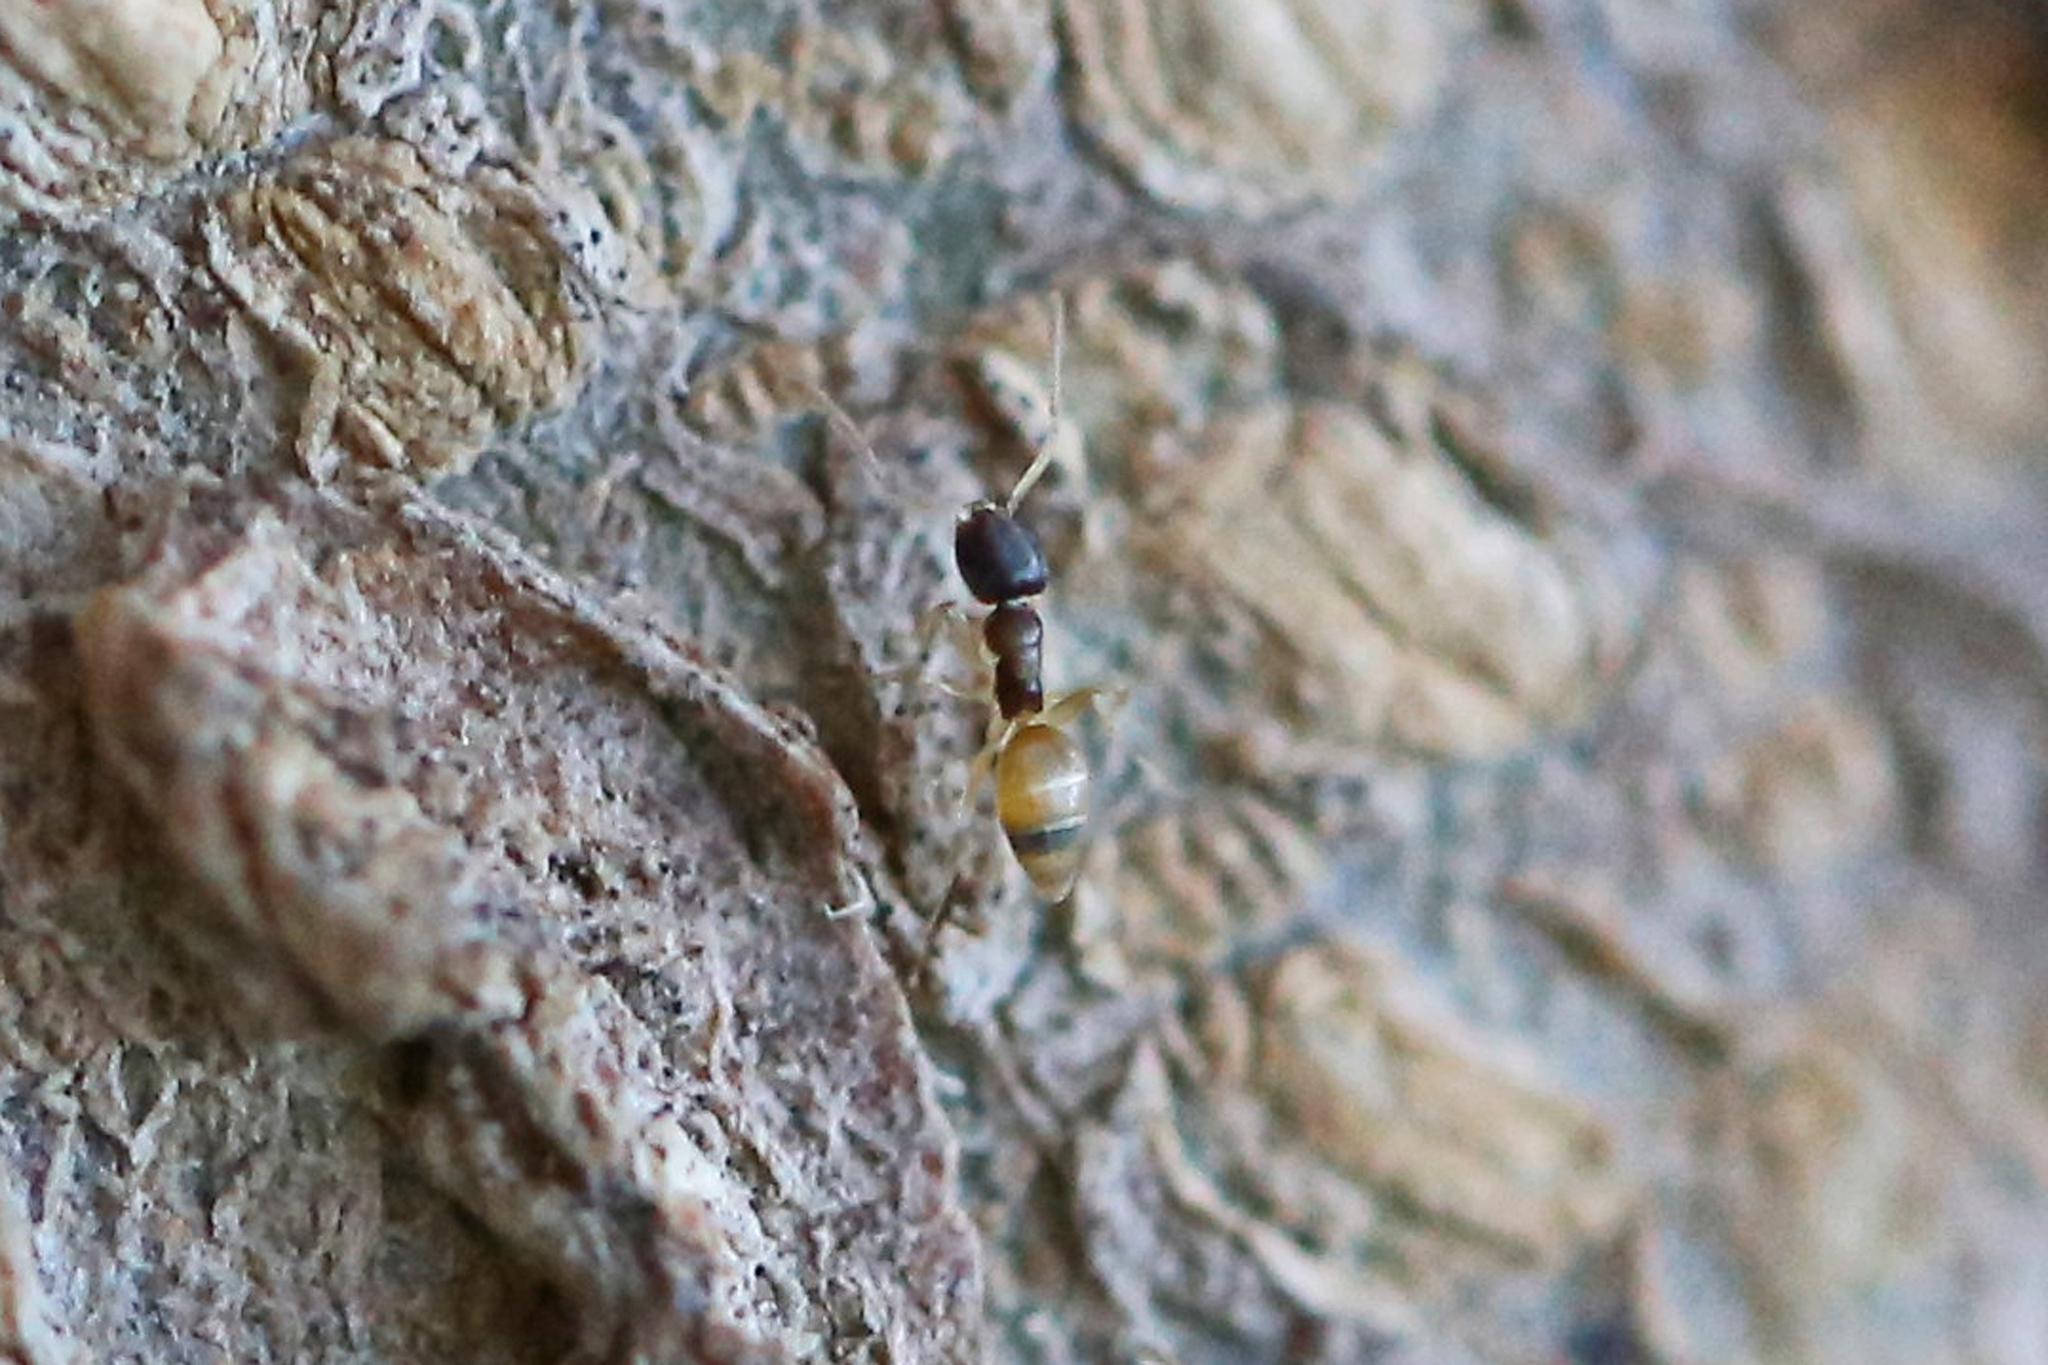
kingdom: Animalia
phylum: Arthropoda
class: Insecta
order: Hymenoptera
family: Formicidae
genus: Tapinoma
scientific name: Tapinoma melanocephalum
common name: Ghost ant
